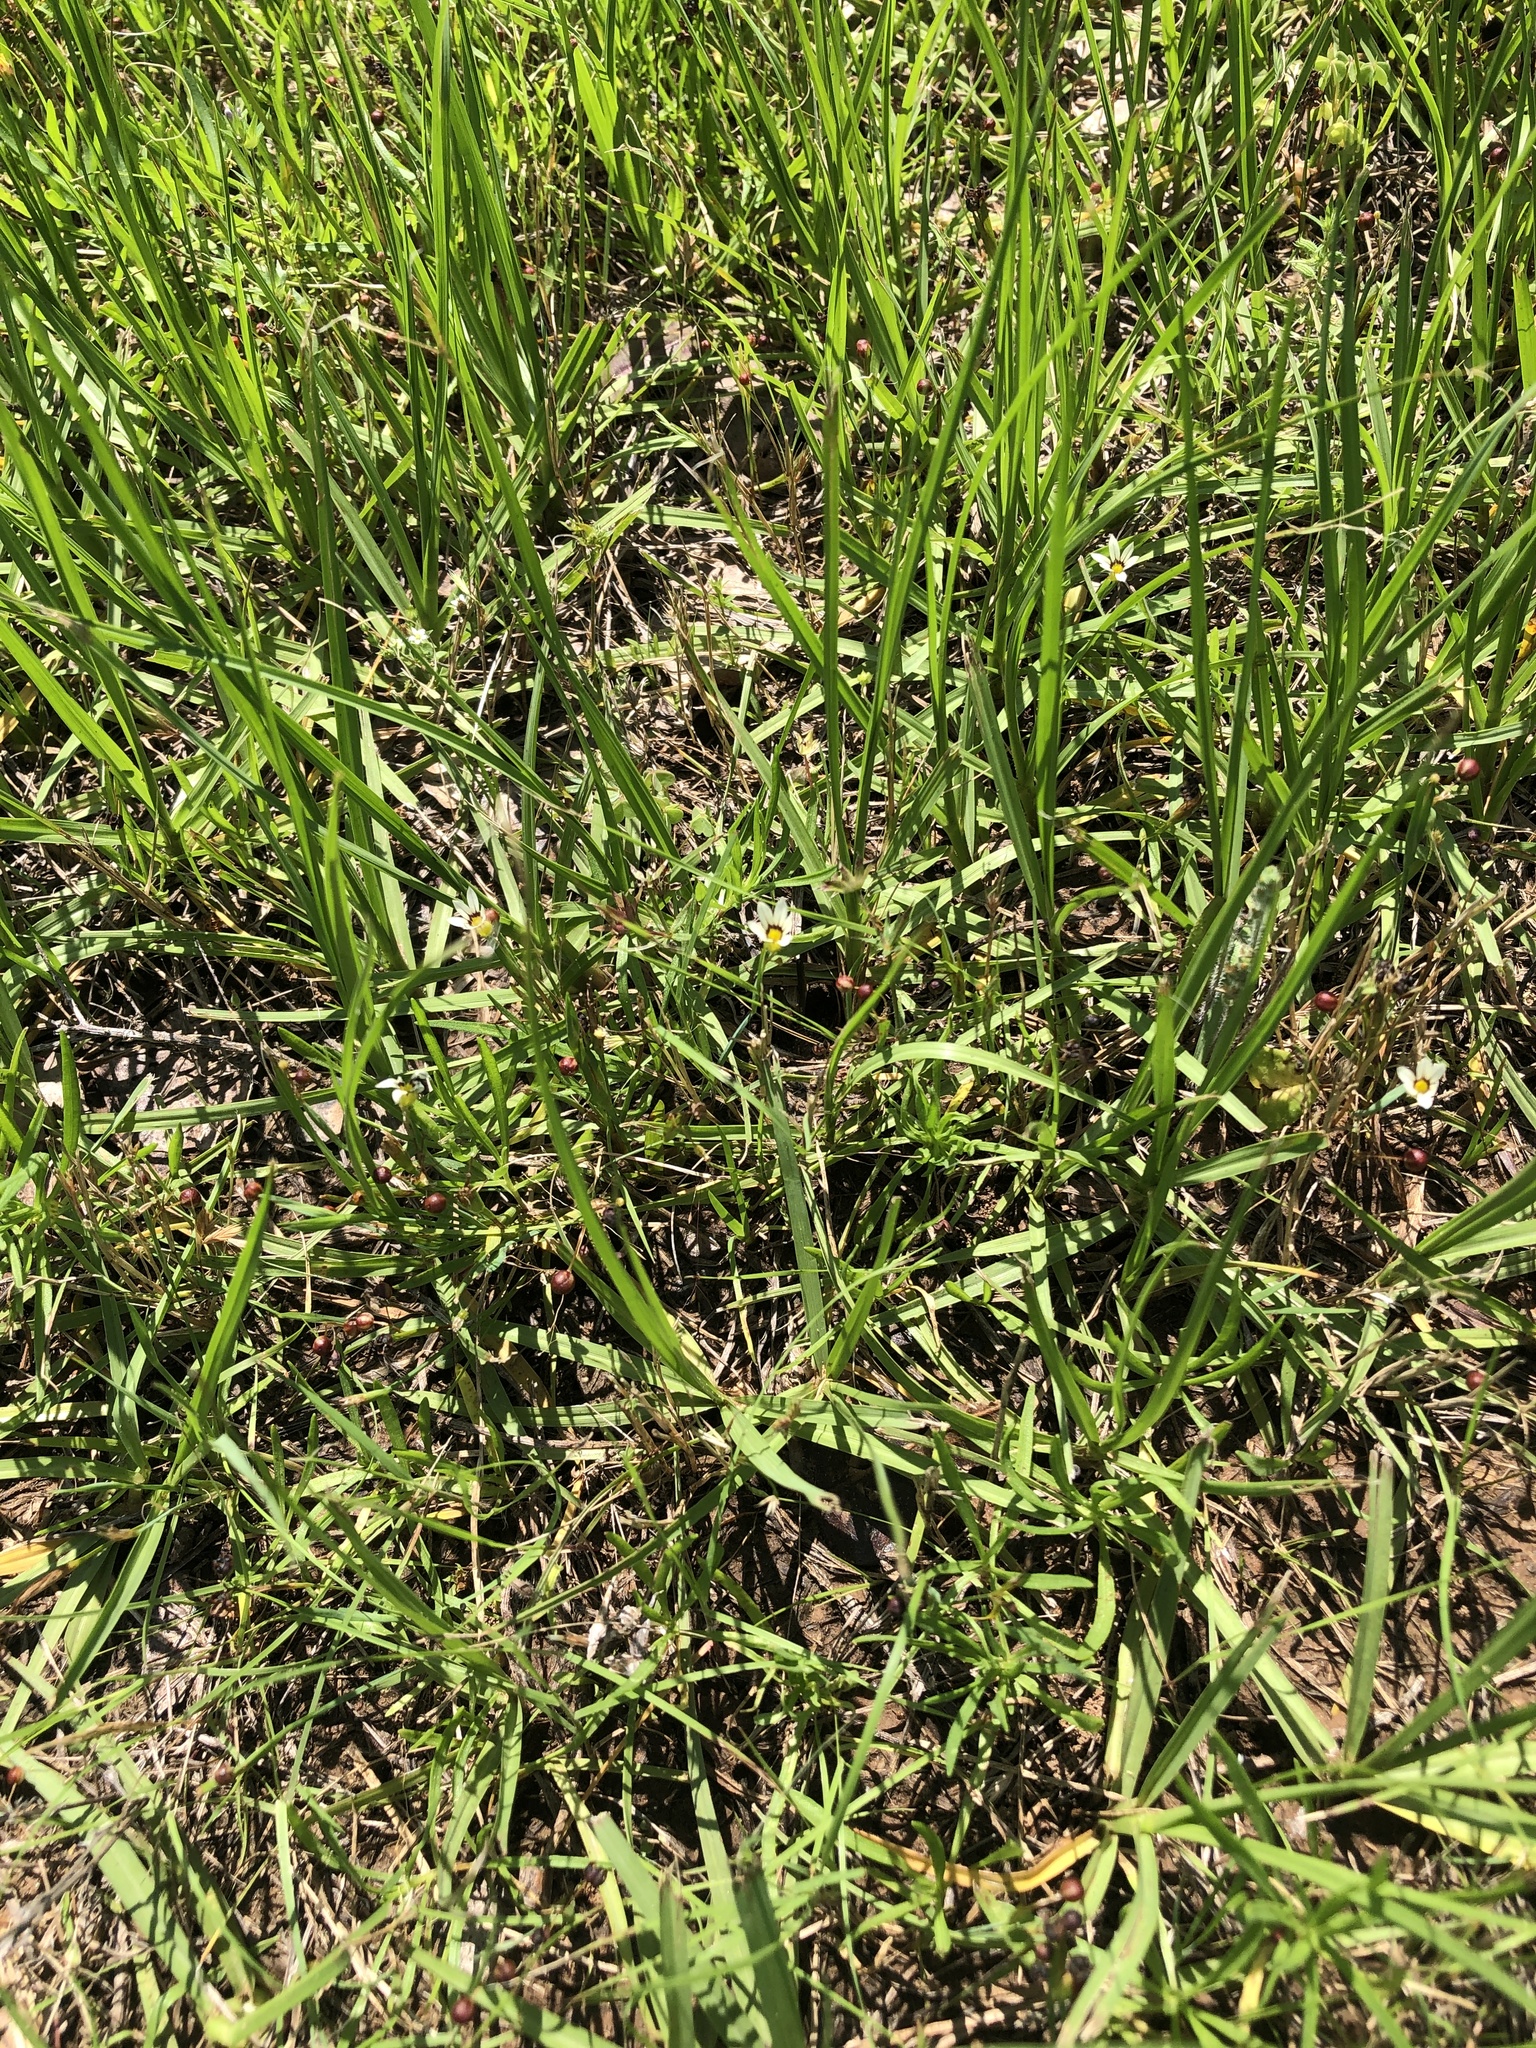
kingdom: Plantae
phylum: Tracheophyta
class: Liliopsida
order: Asparagales
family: Iridaceae
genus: Sisyrinchium
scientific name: Sisyrinchium micranthum
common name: Bermuda pigroot
